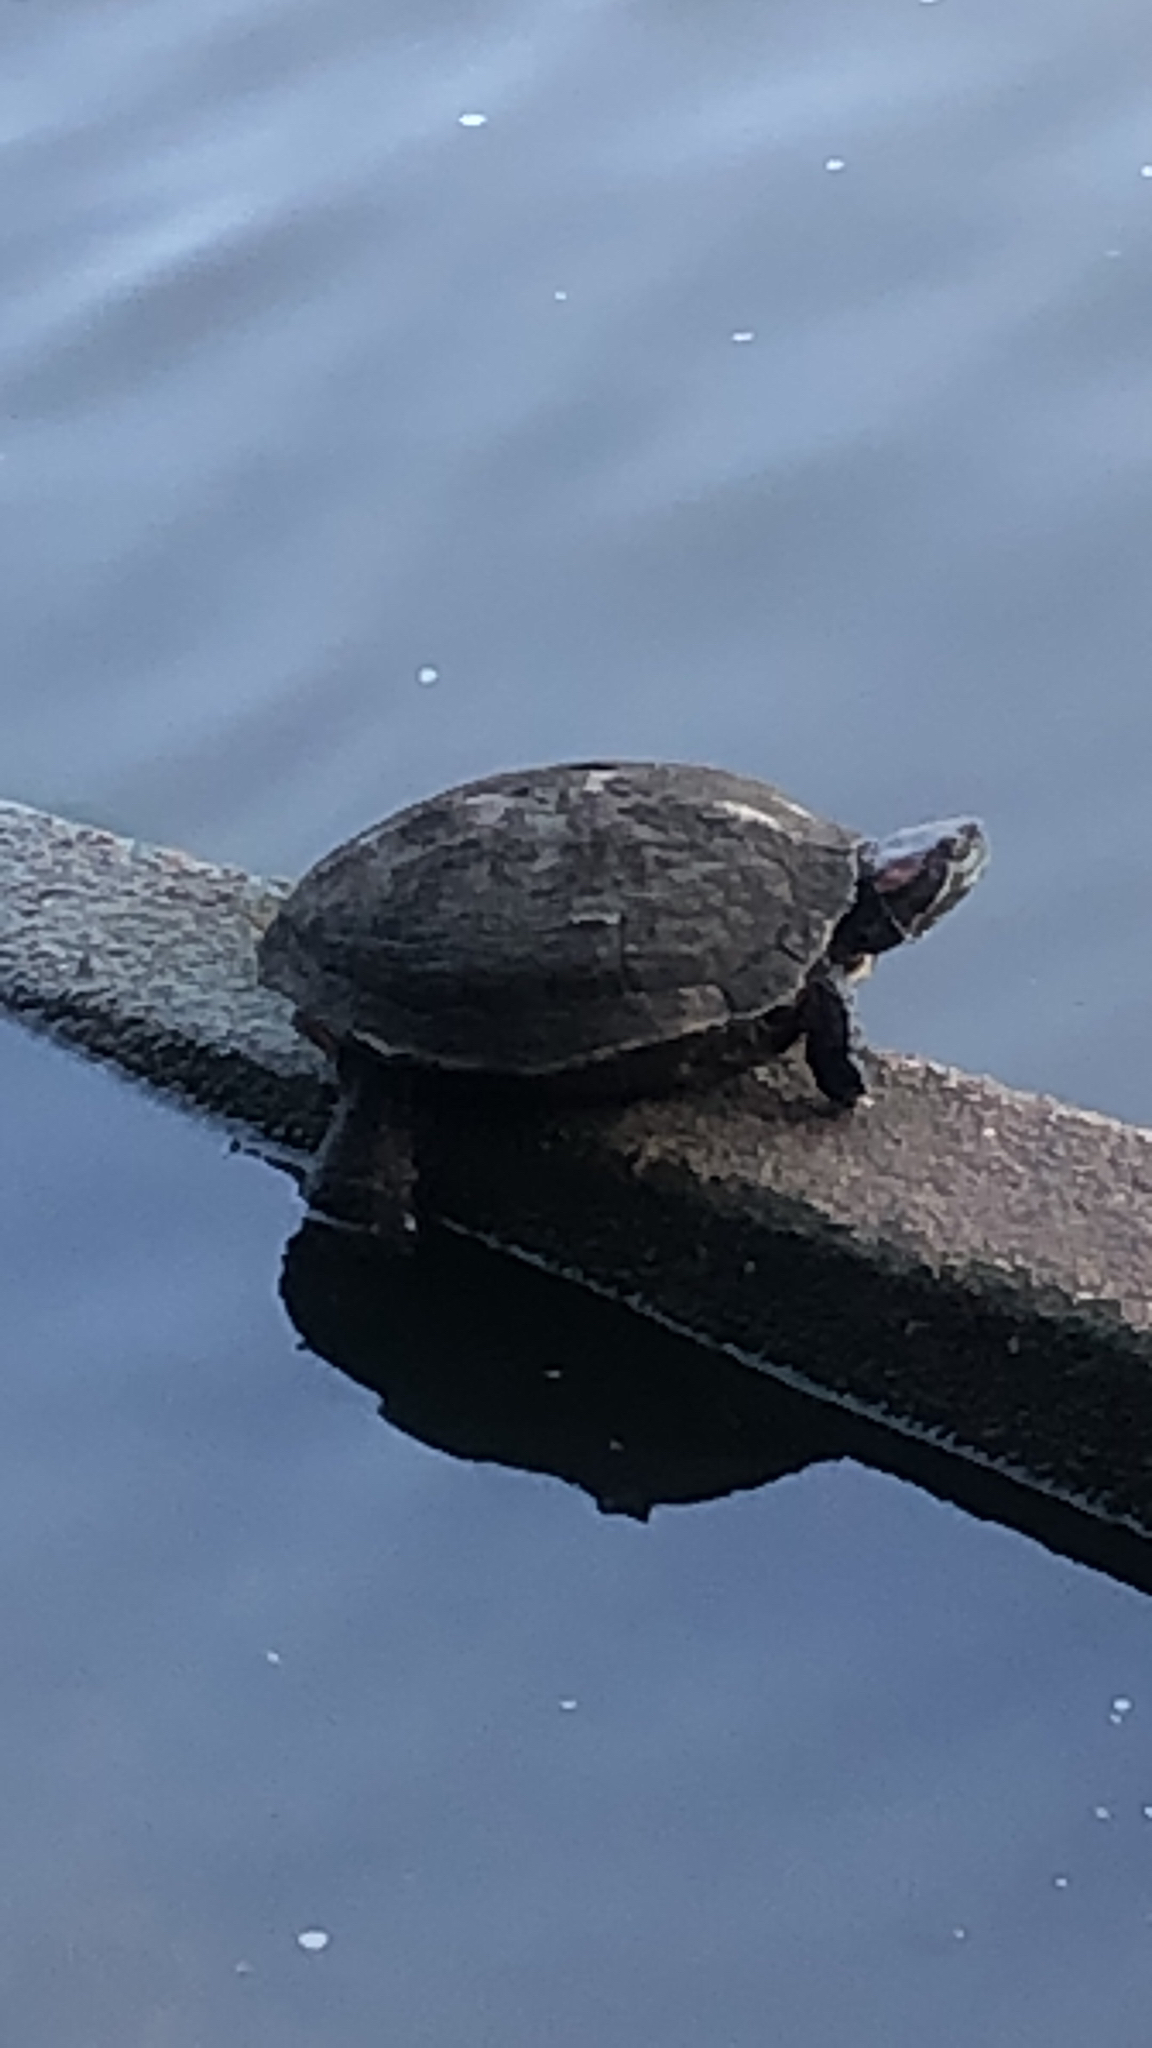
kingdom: Animalia
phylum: Chordata
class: Testudines
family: Emydidae
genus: Trachemys
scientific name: Trachemys scripta
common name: Slider
